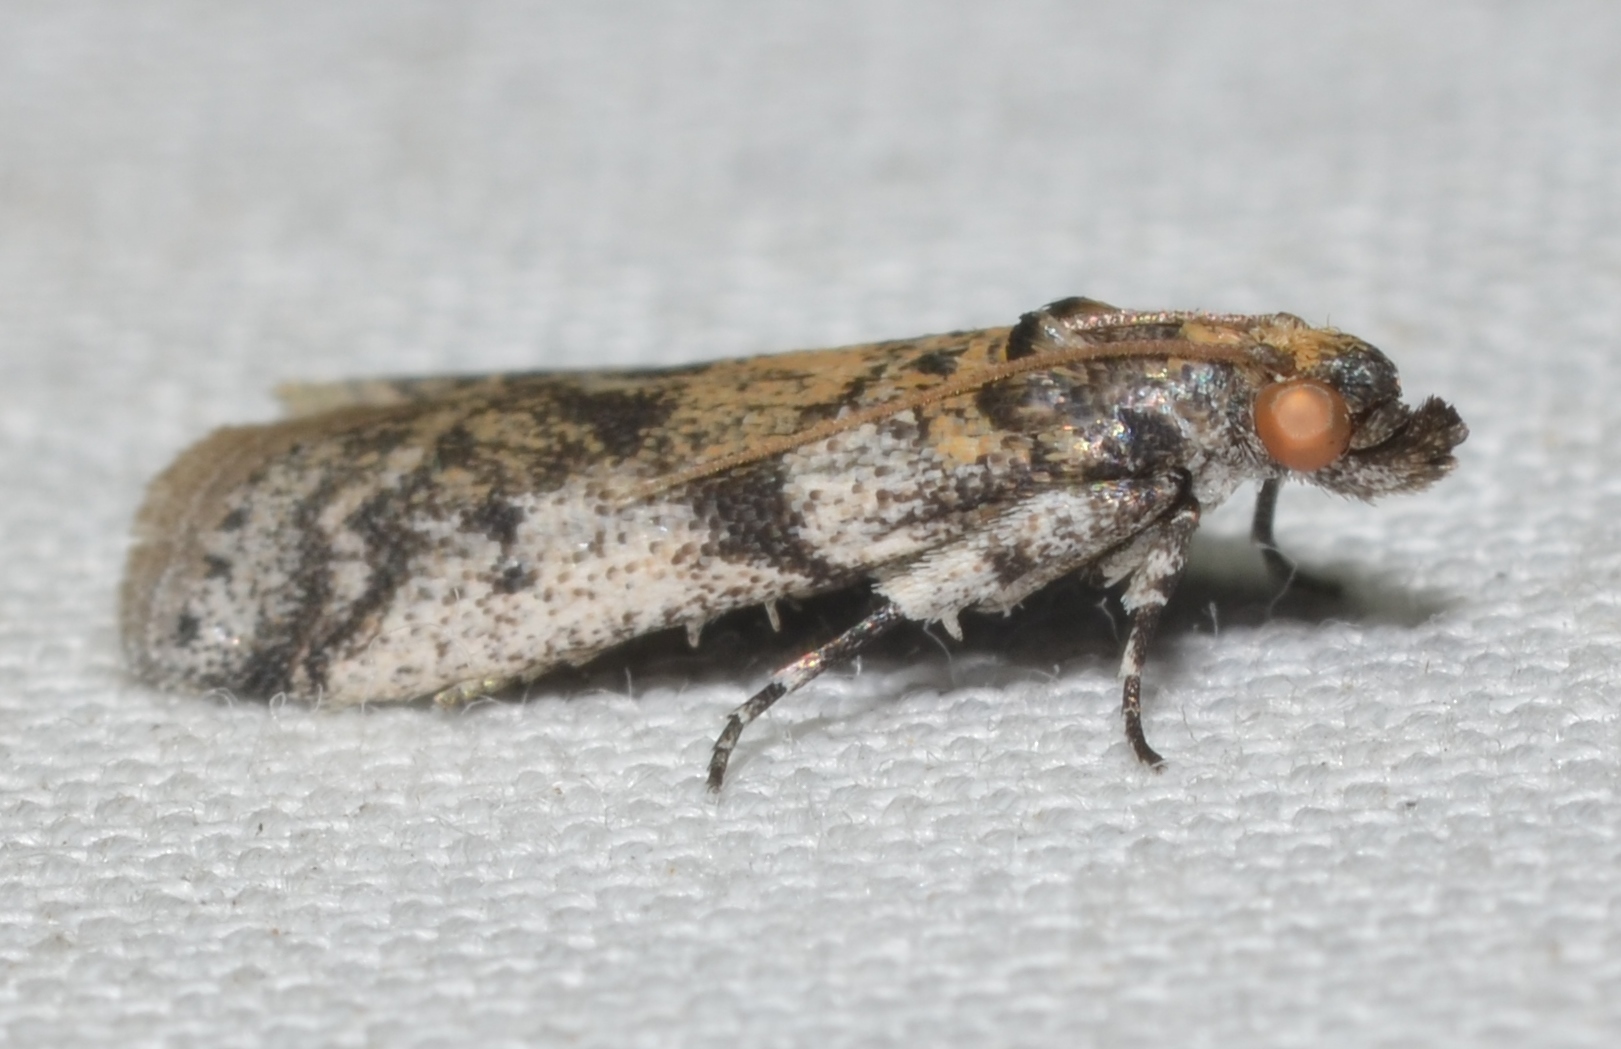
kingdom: Animalia
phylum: Arthropoda
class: Insecta
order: Lepidoptera
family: Pyralidae
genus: Laetilia
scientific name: Laetilia coccidivora
